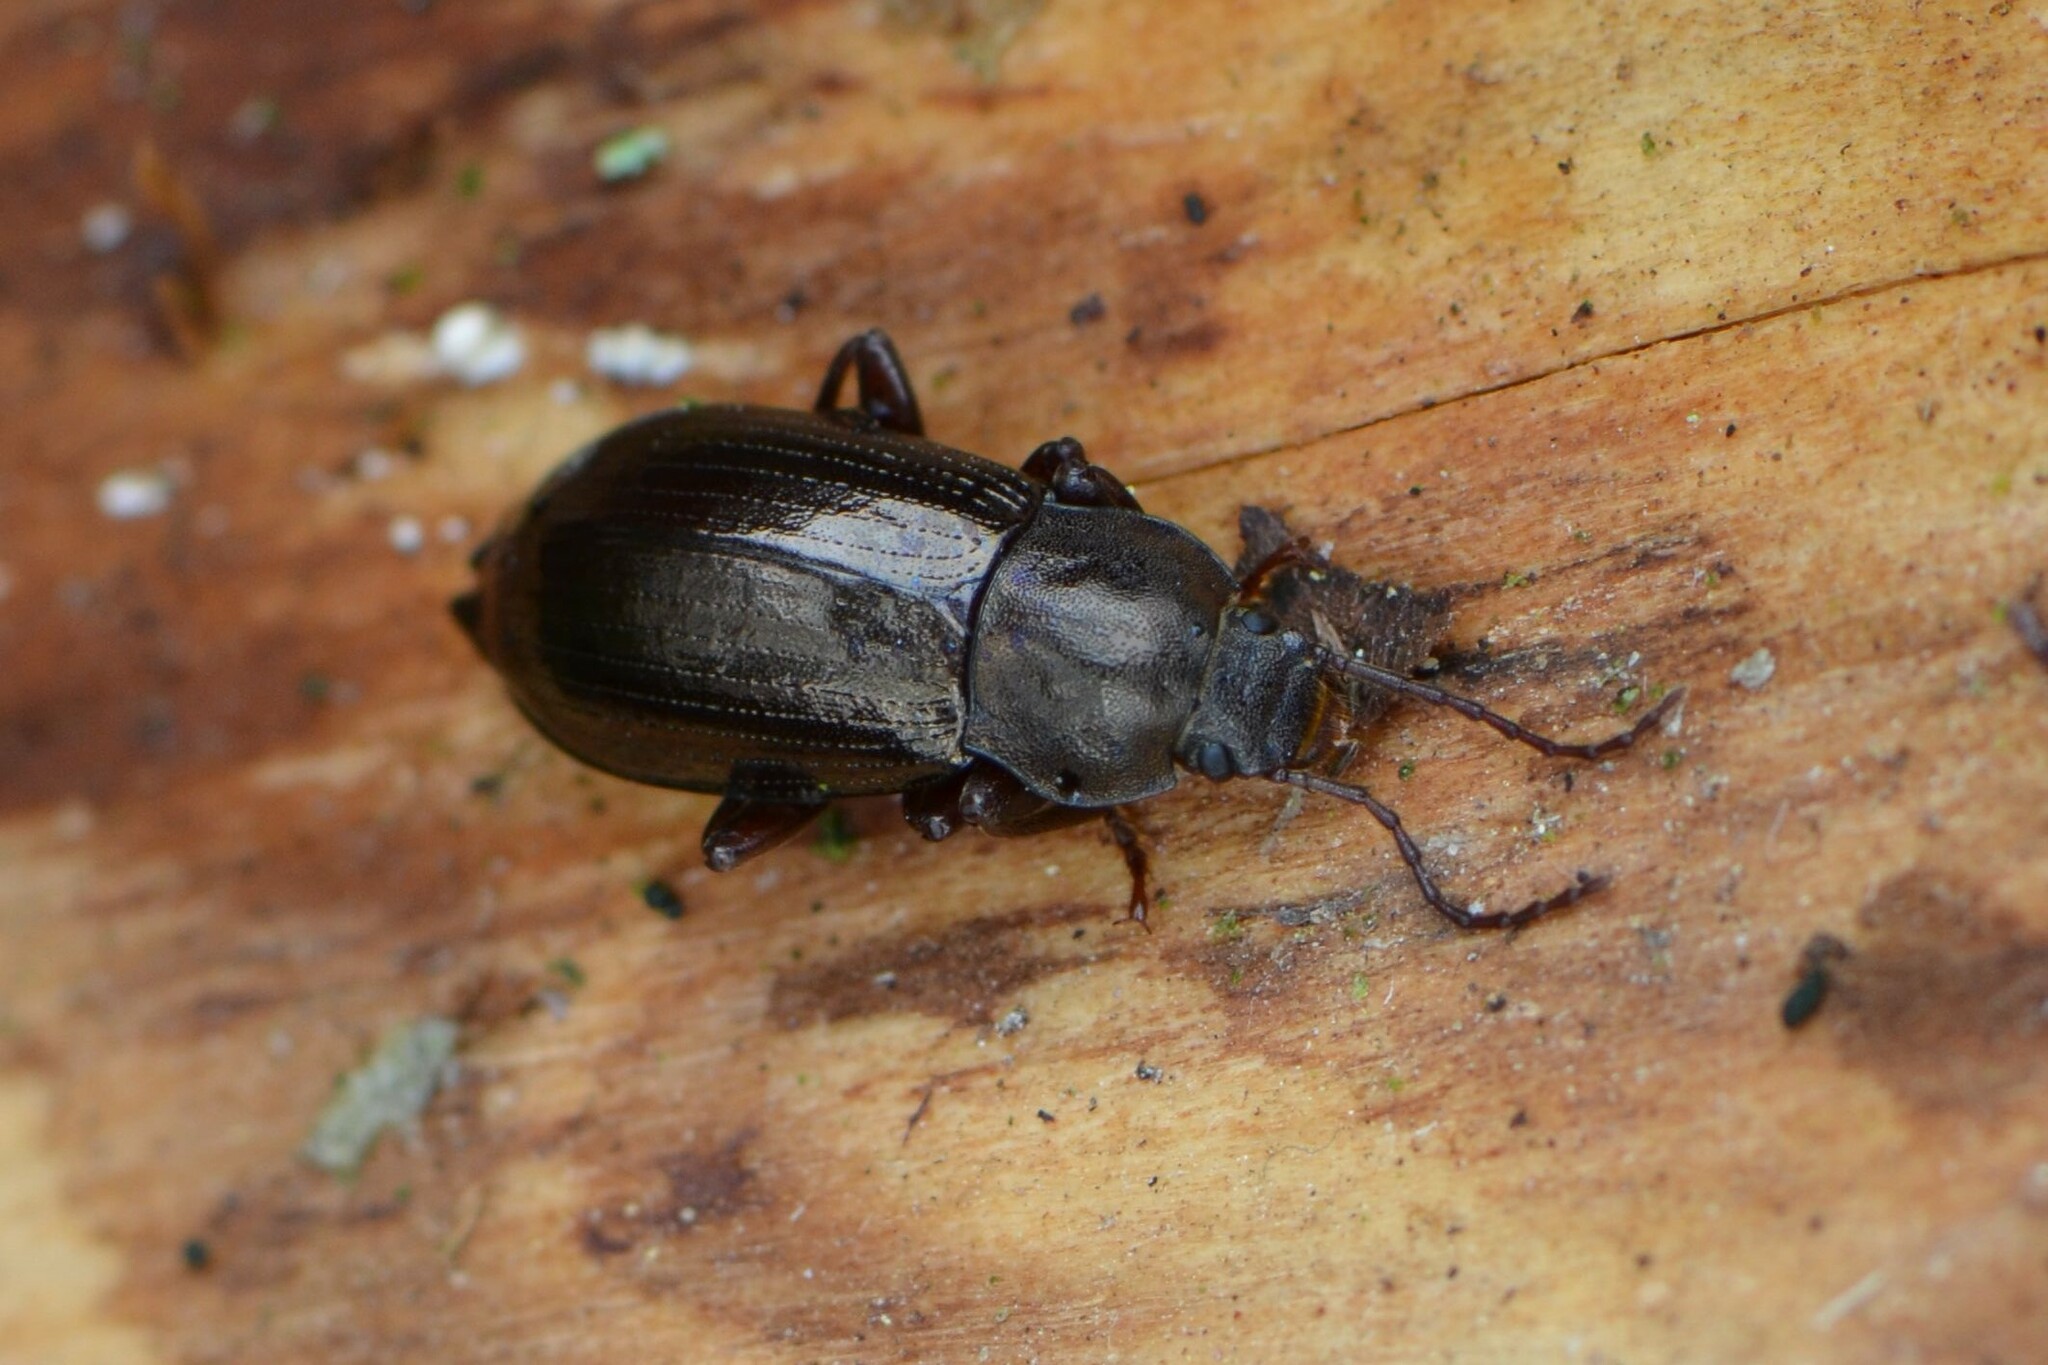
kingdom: Animalia
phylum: Arthropoda
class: Insecta
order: Coleoptera
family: Tenebrionidae
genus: Stenomax
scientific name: Stenomax aeneus
